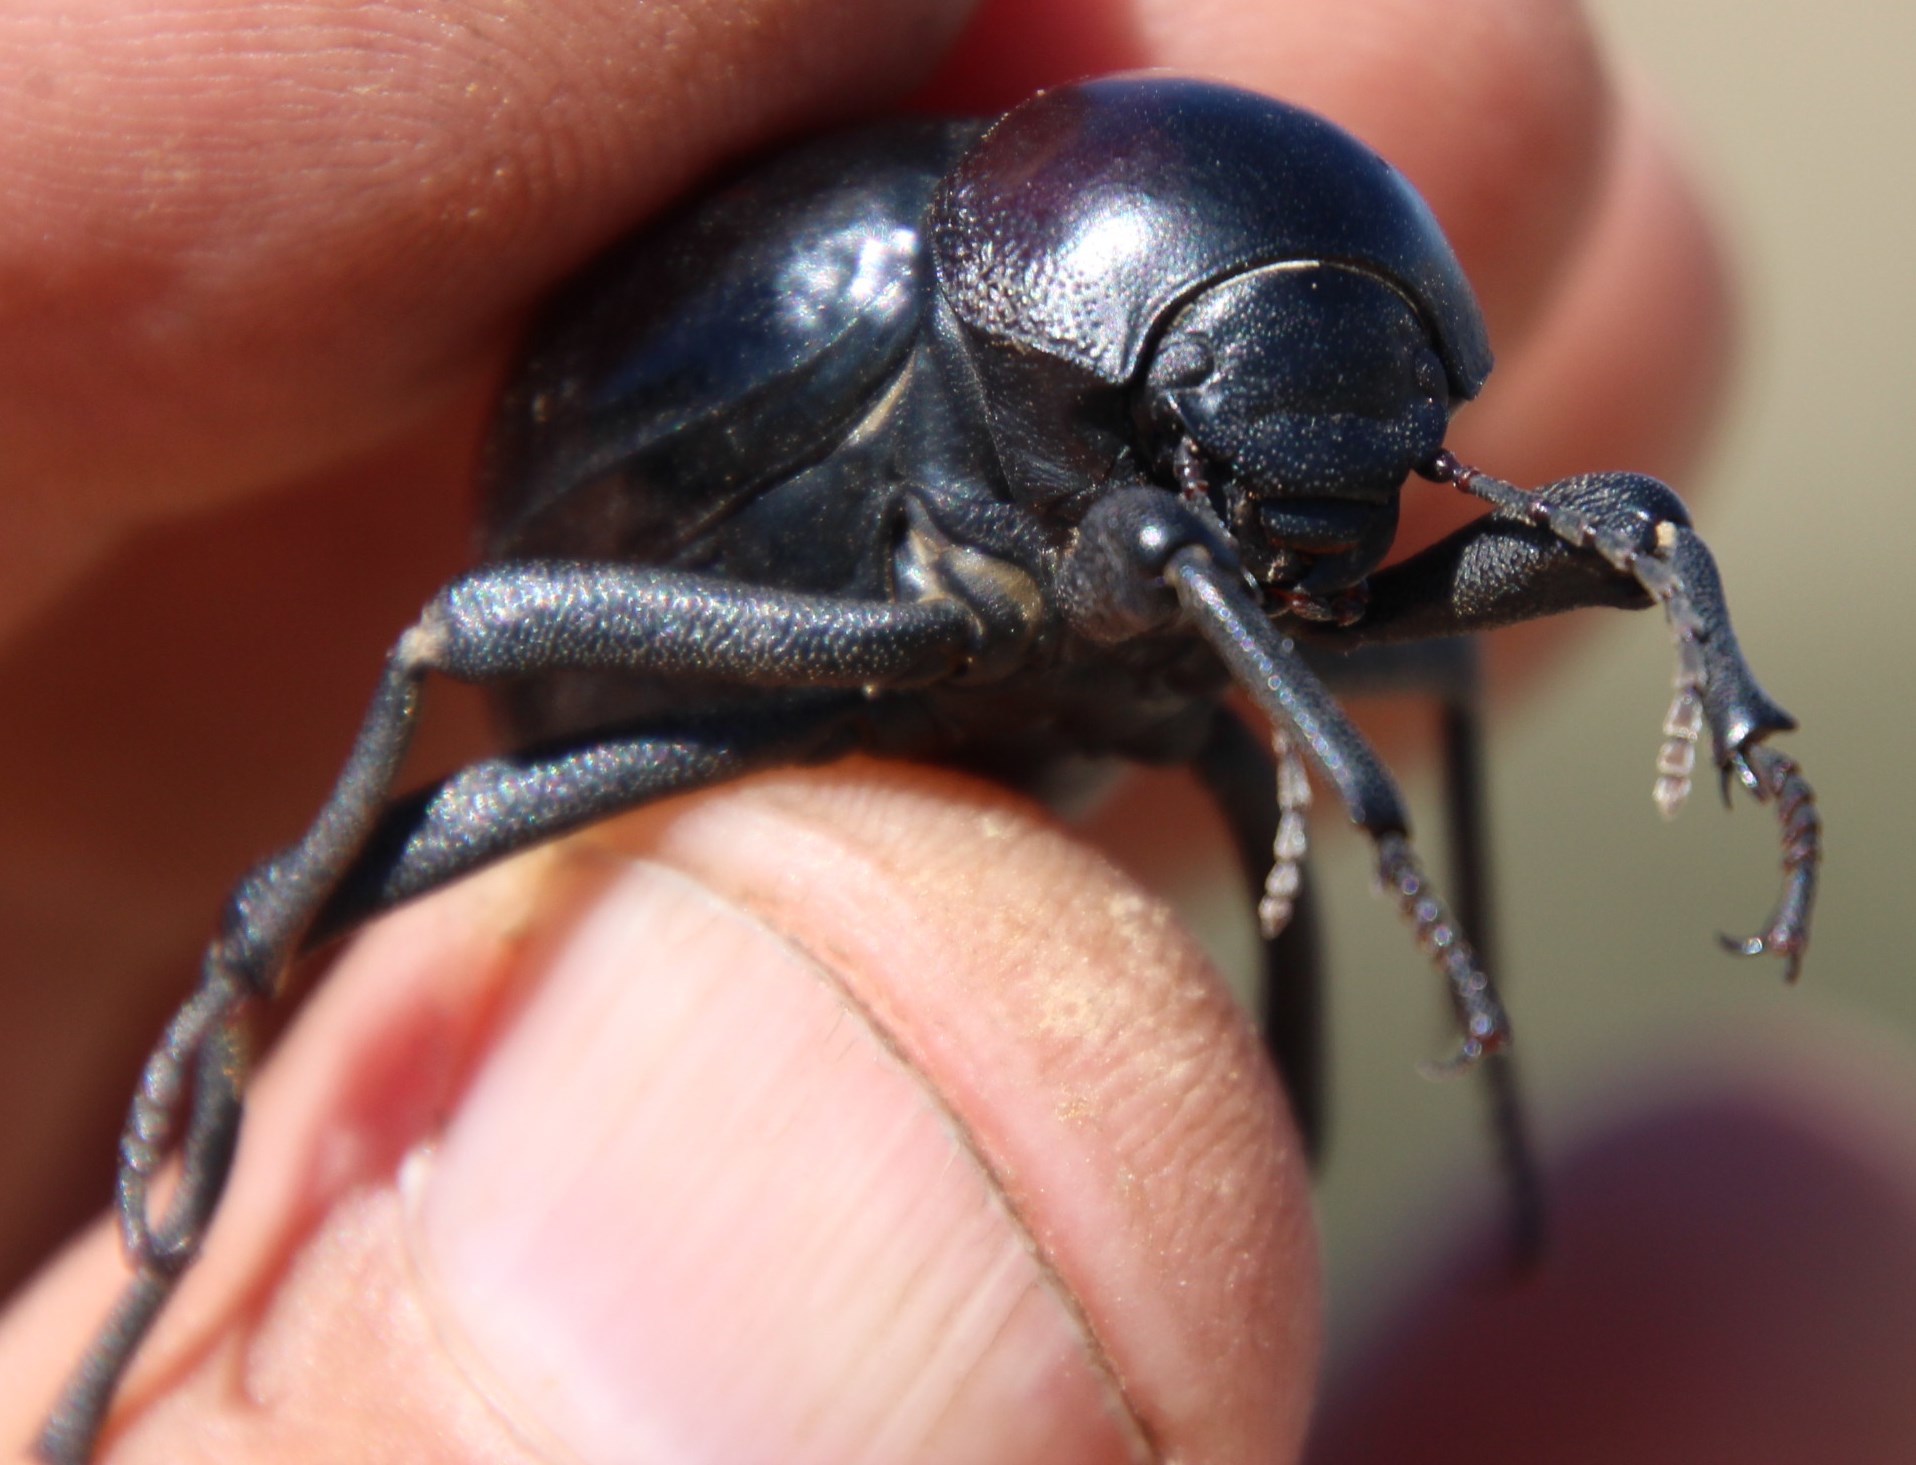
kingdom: Animalia
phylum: Arthropoda
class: Insecta
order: Coleoptera
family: Tenebrionidae
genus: Mariazofia
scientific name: Mariazofia
